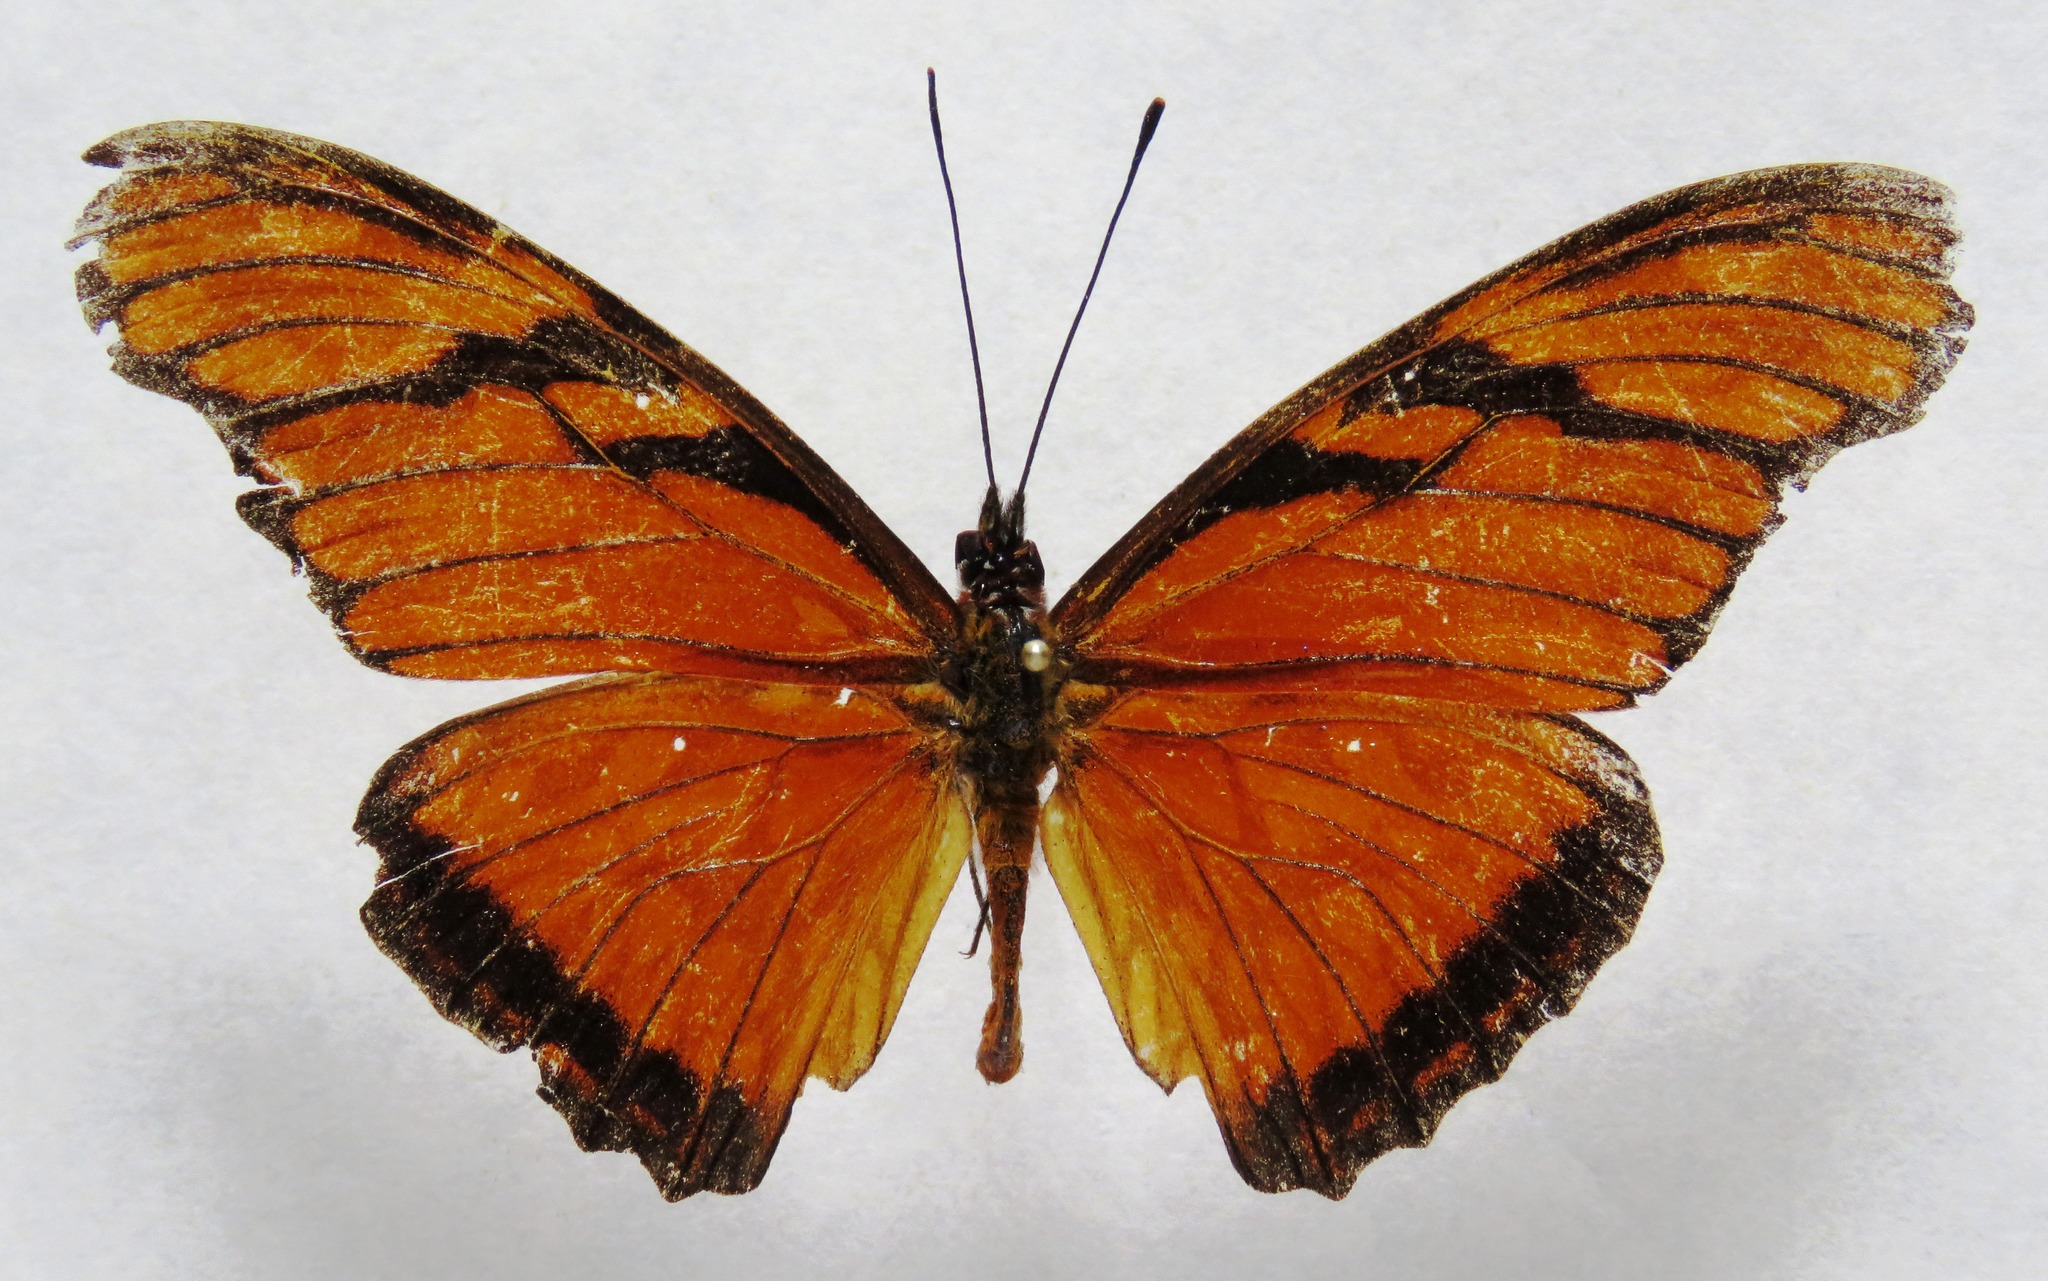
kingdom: Animalia
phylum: Arthropoda
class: Insecta
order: Lepidoptera
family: Nymphalidae
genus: Dione
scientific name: Dione juno
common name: Juno silverspot
